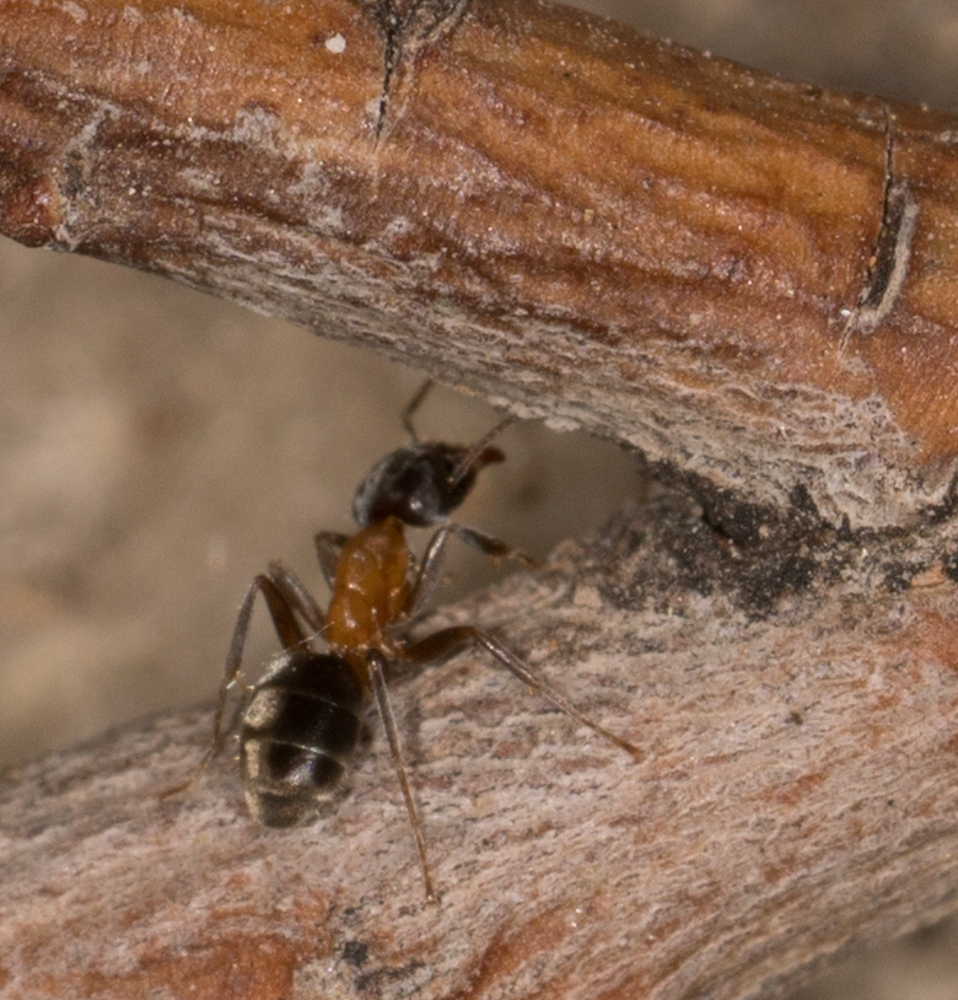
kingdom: Animalia
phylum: Arthropoda
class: Insecta
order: Hymenoptera
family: Formicidae
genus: Liometopum
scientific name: Liometopum occidentale
